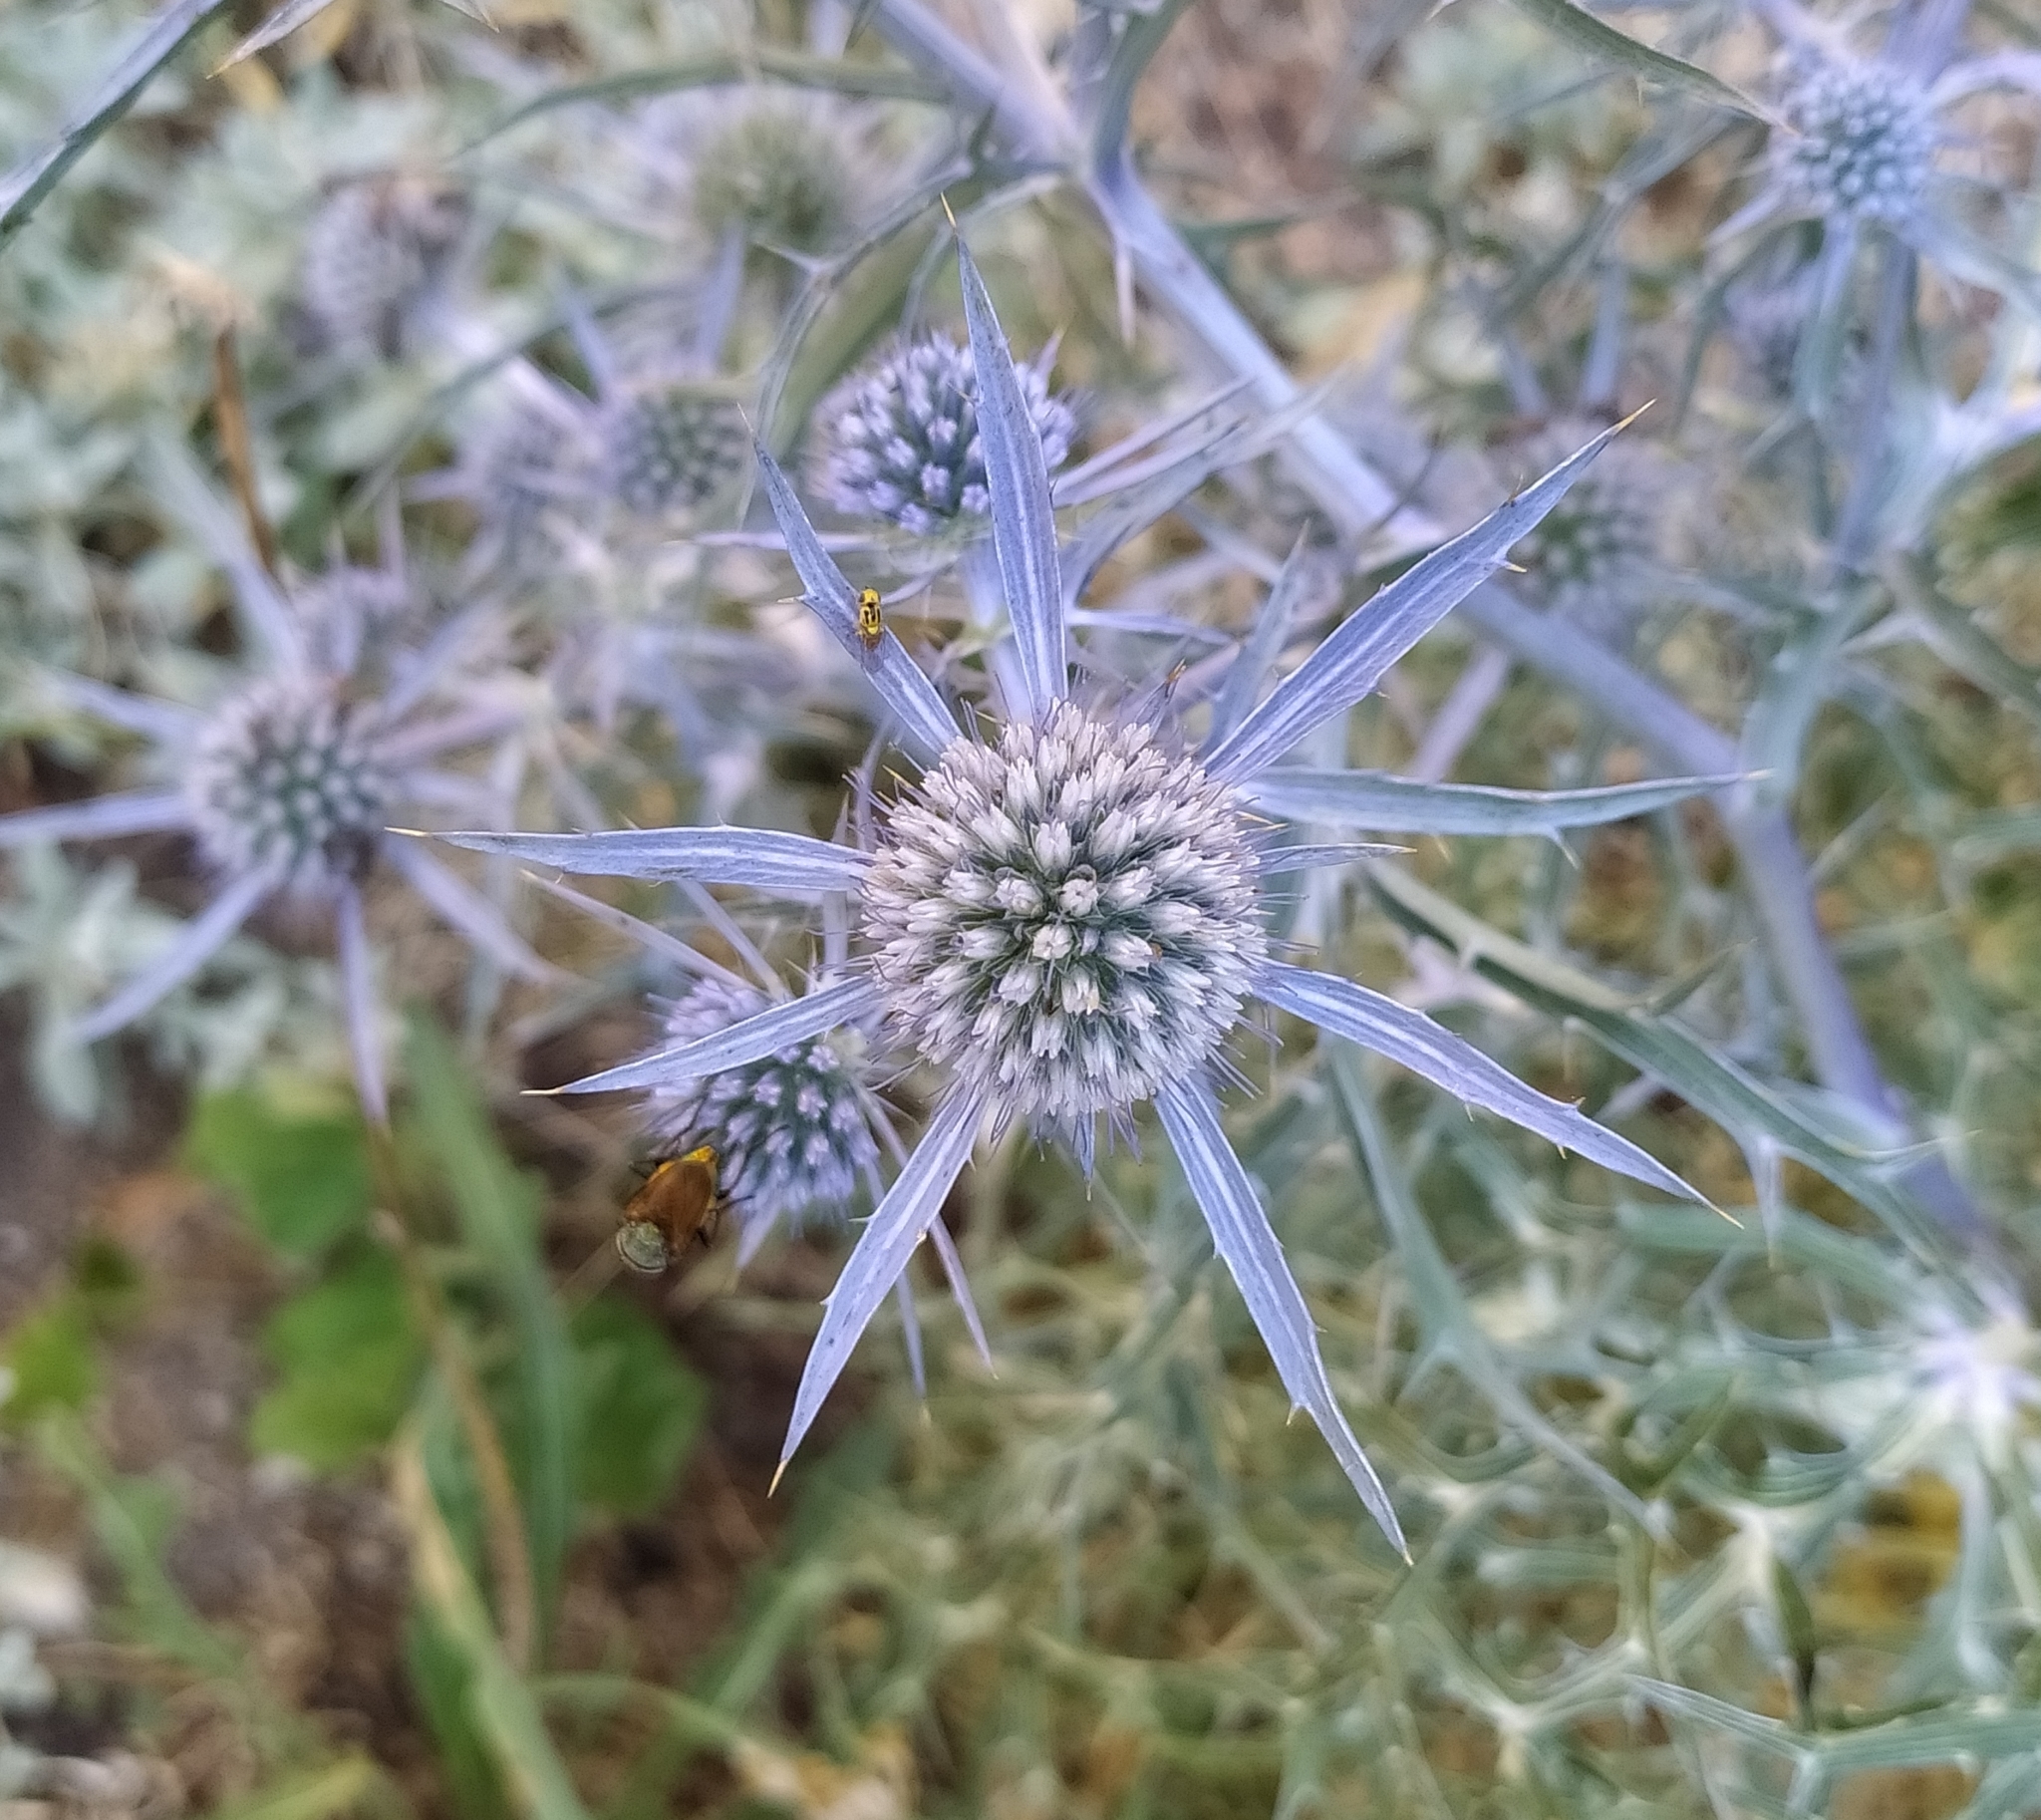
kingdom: Plantae
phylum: Tracheophyta
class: Magnoliopsida
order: Apiales
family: Apiaceae
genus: Eryngium
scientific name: Eryngium amethystinum
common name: Amethyst eryngo
